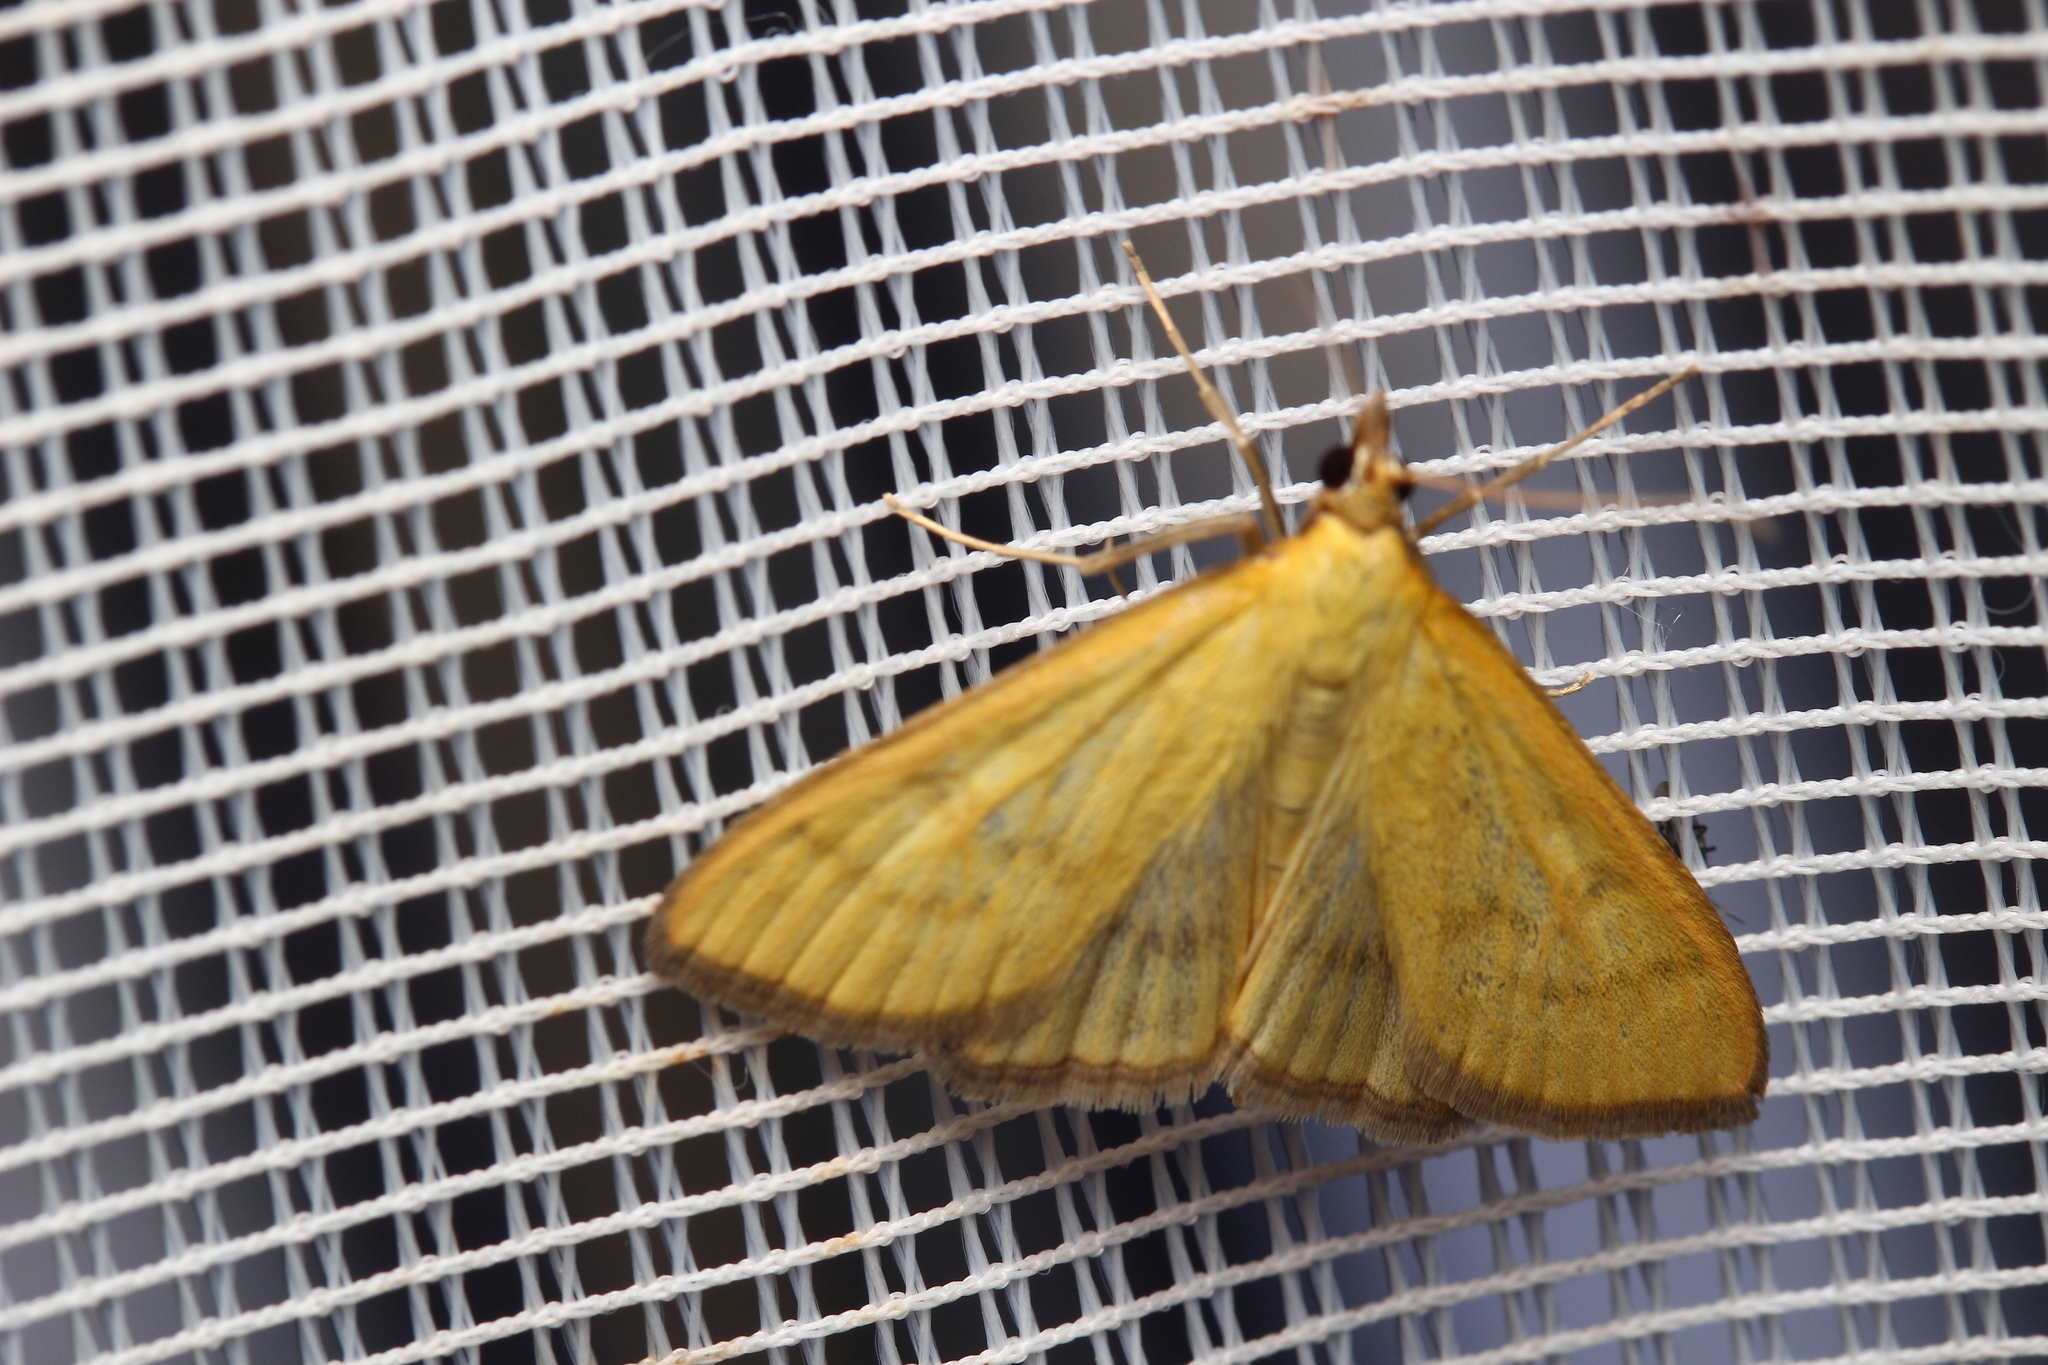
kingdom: Animalia
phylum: Arthropoda
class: Insecta
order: Lepidoptera
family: Crambidae
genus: Mecyna
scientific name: Mecyna flavalis
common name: Yellow pearl
